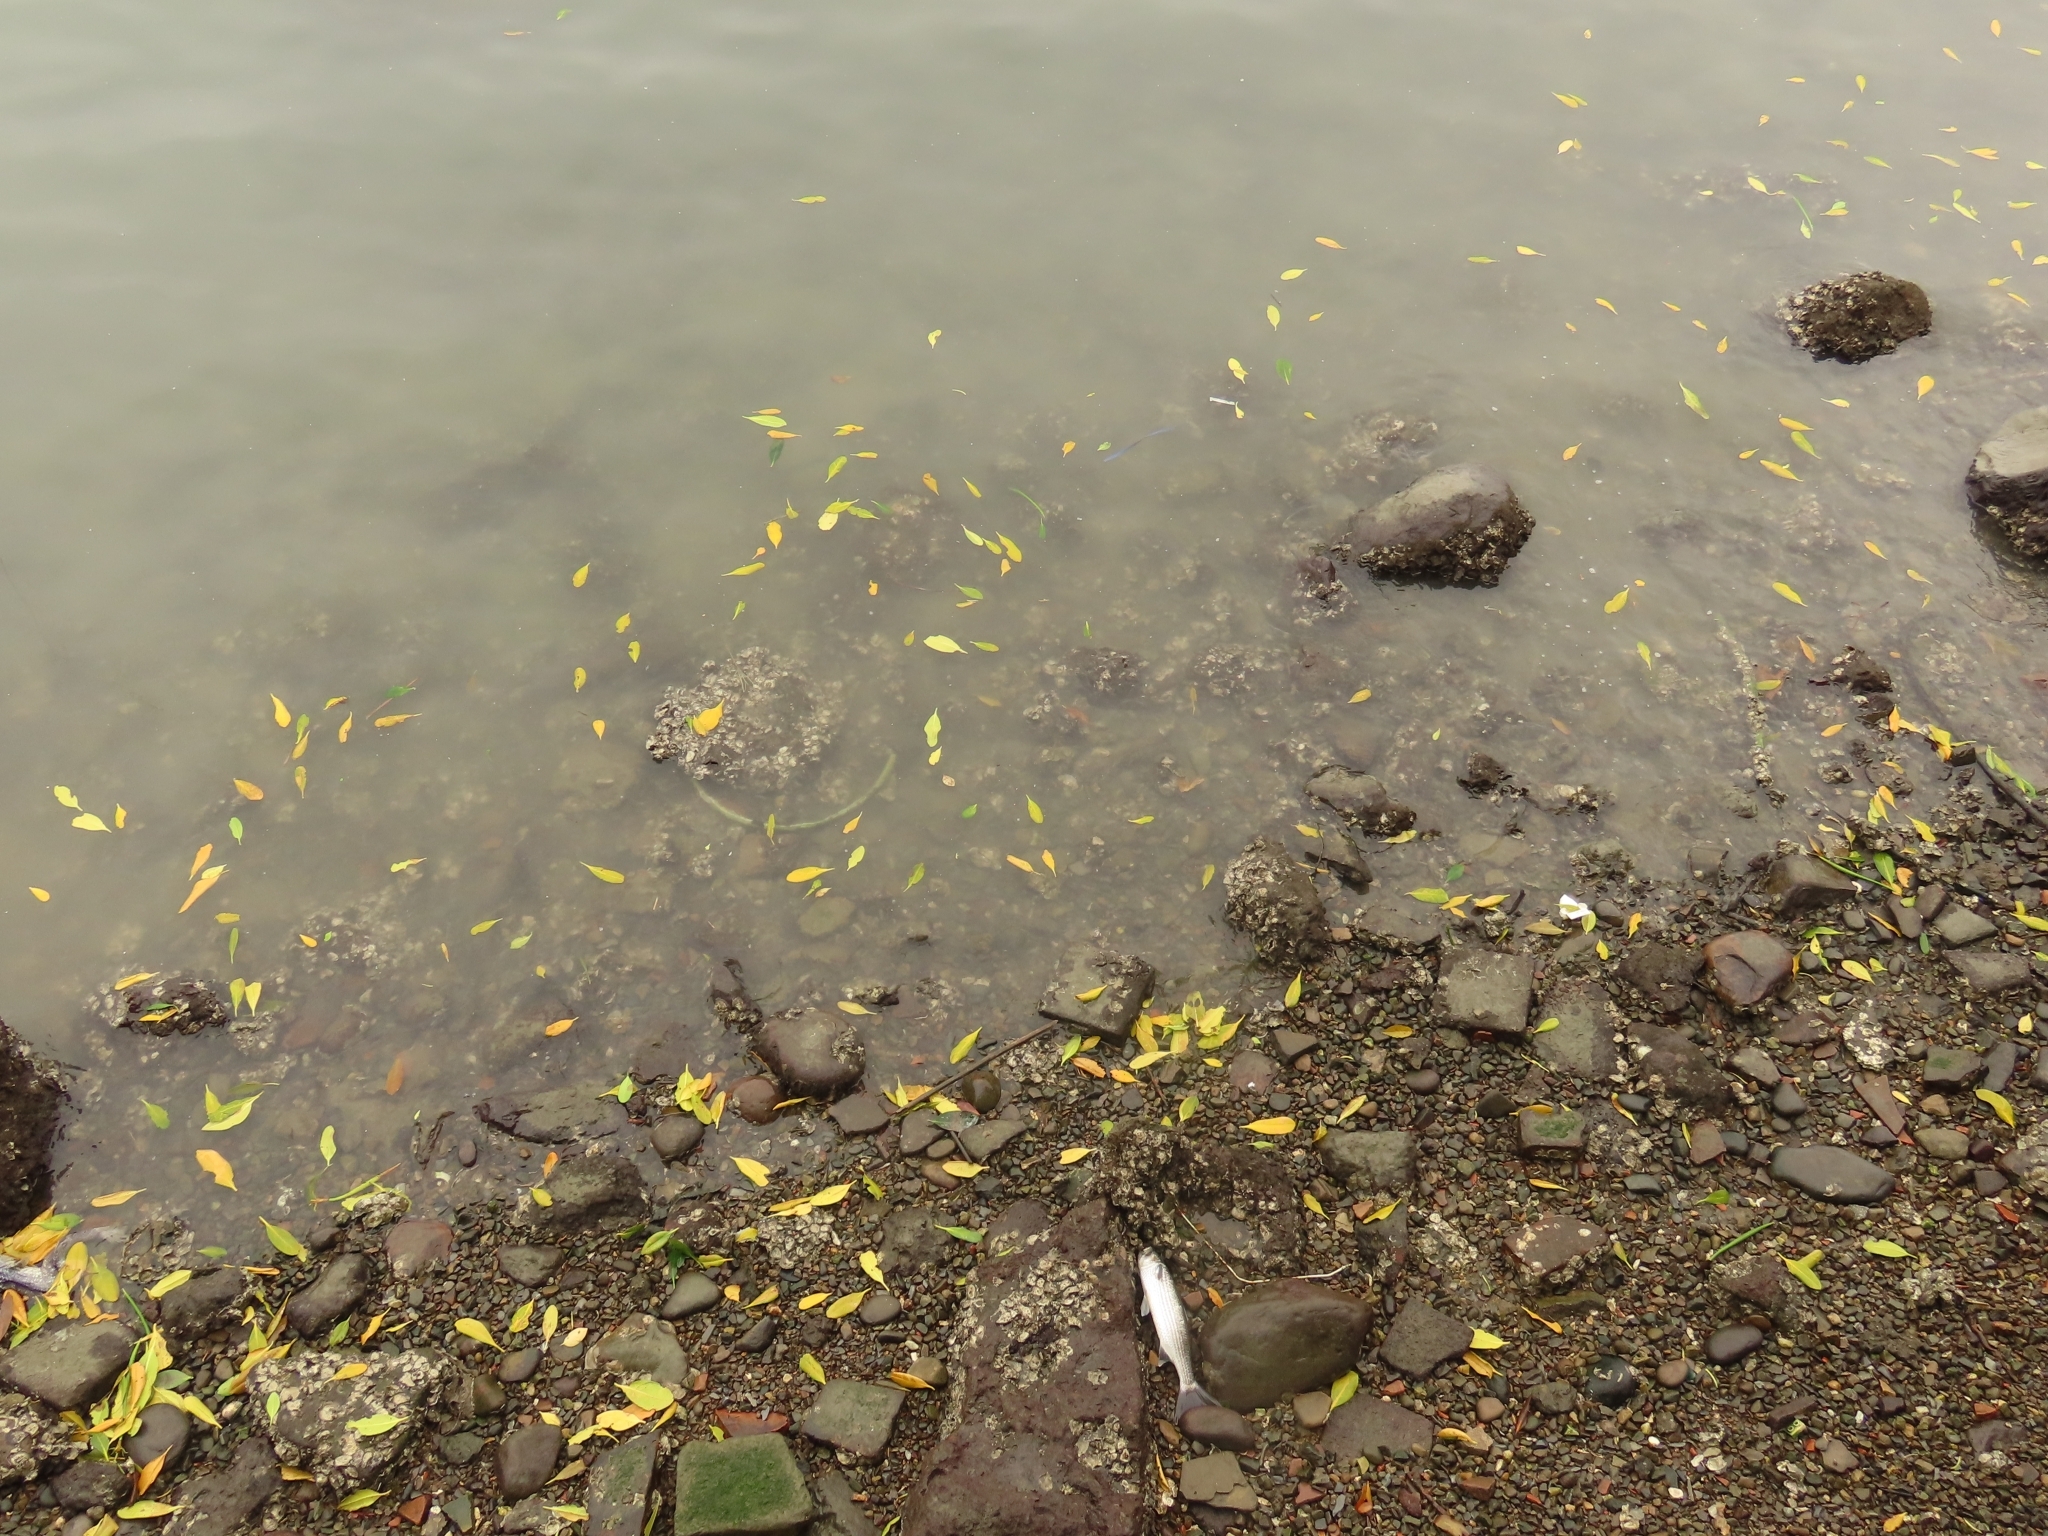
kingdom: Animalia
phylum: Chordata
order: Mugiliformes
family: Mugilidae
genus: Mugil
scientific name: Mugil cephalus
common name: Grey mullet
